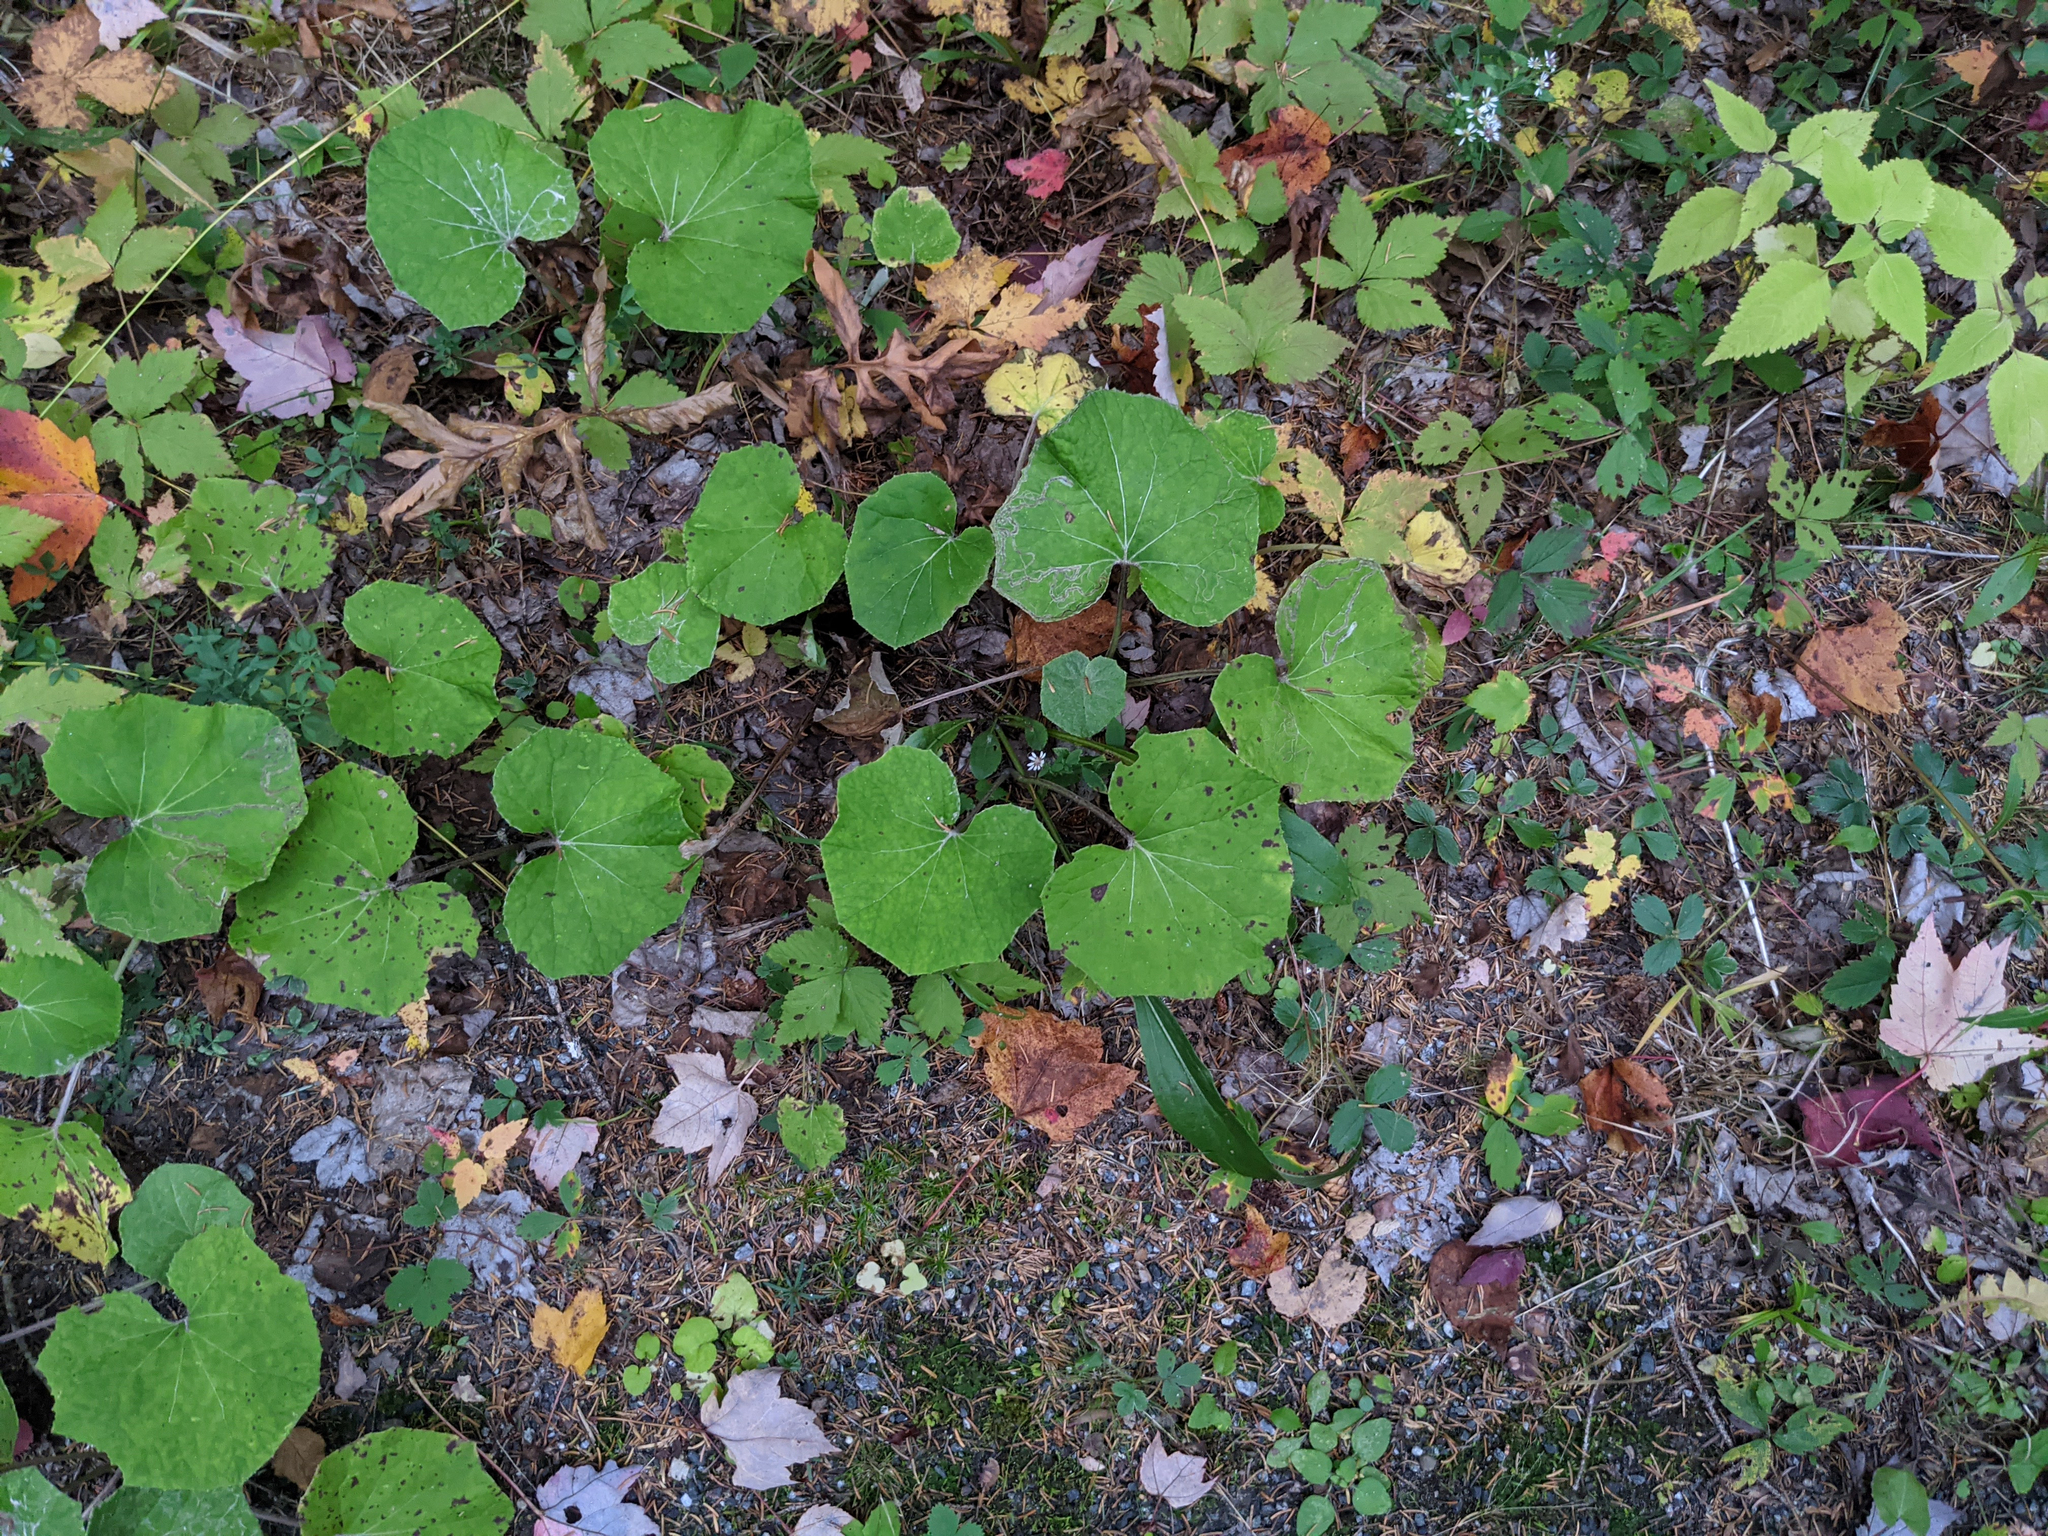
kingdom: Plantae
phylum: Tracheophyta
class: Magnoliopsida
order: Asterales
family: Asteraceae
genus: Tussilago
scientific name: Tussilago farfara
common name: Coltsfoot
